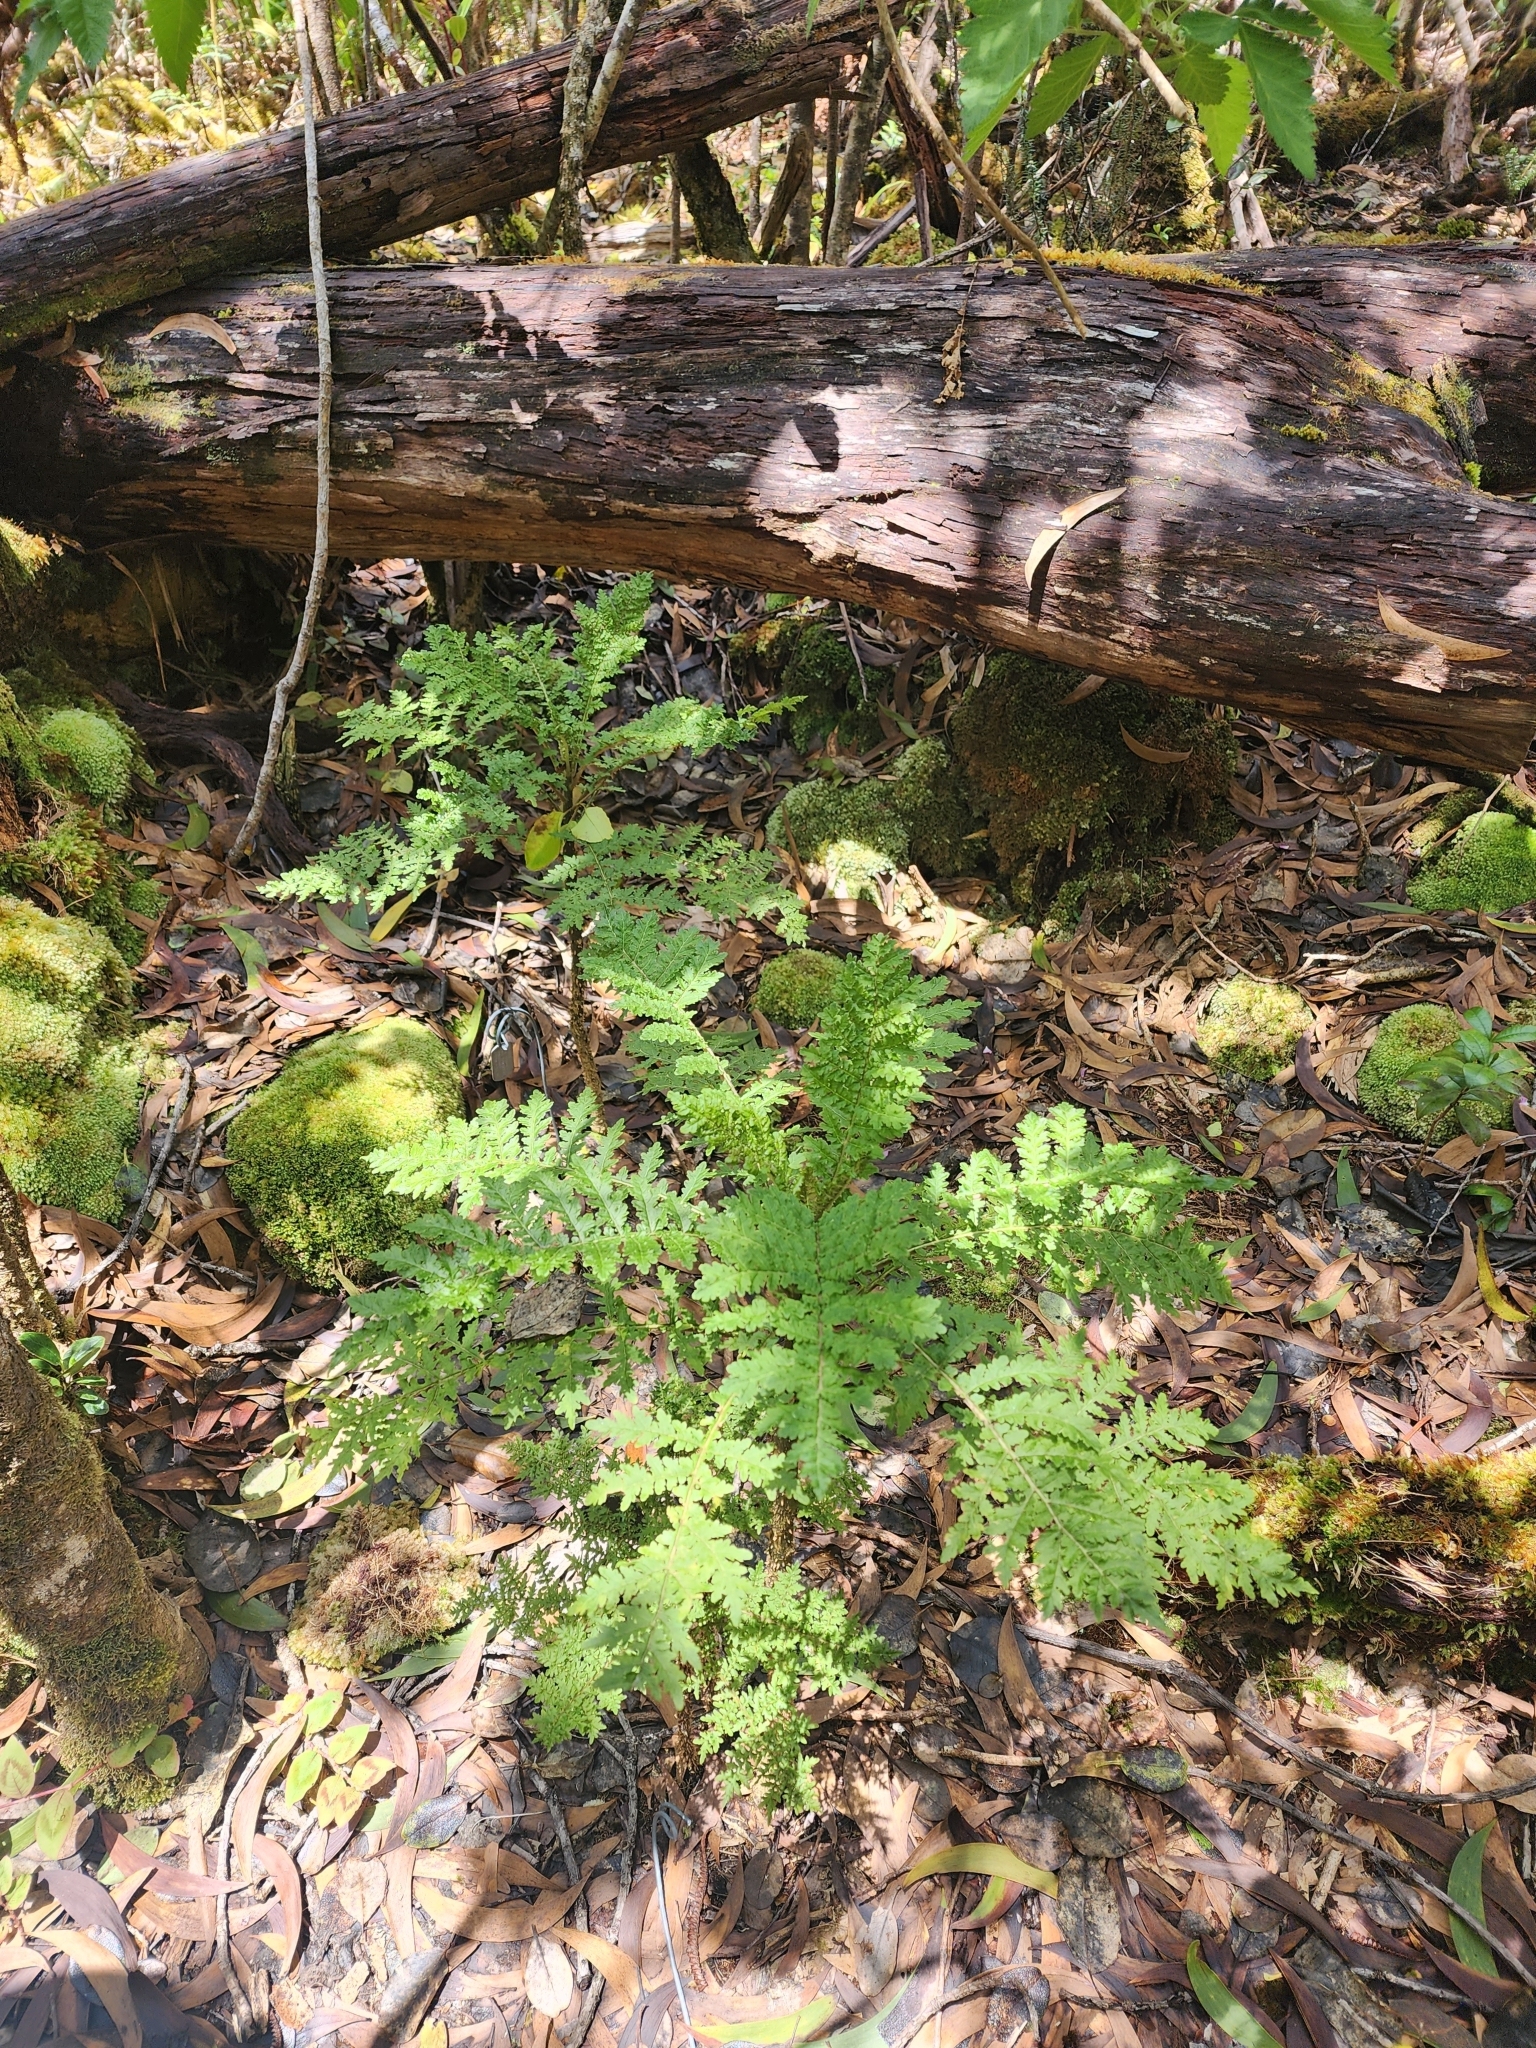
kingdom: Plantae
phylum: Tracheophyta
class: Magnoliopsida
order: Asterales
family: Campanulaceae
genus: Cyanea
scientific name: Cyanea shipmanii
